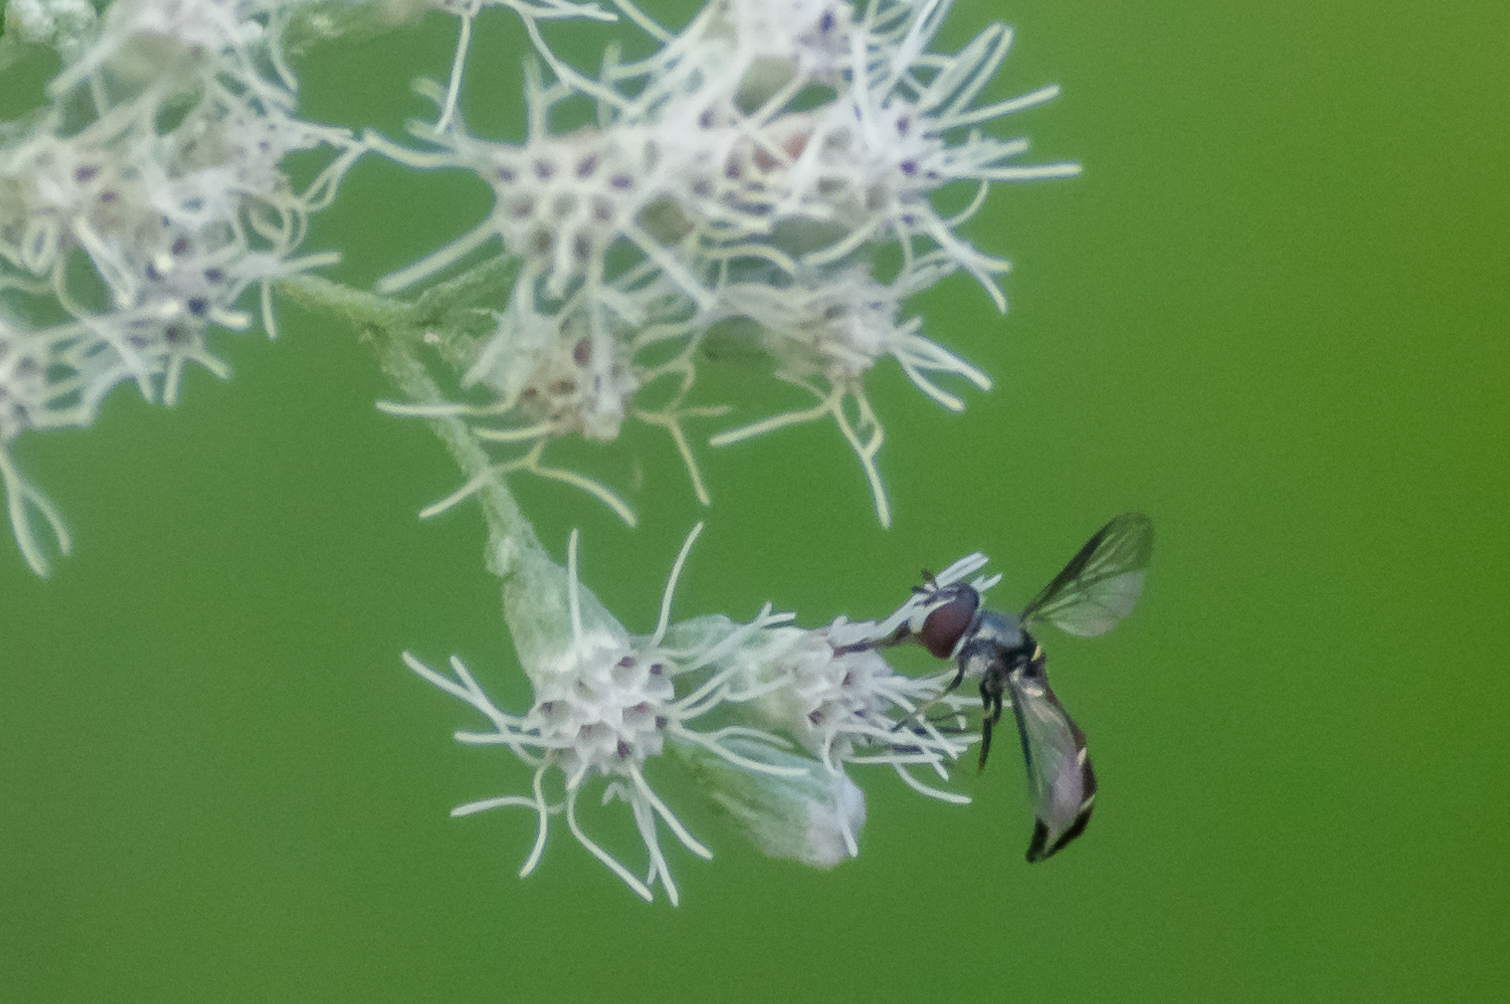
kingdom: Animalia
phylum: Arthropoda
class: Insecta
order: Diptera
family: Syrphidae
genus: Dioprosopa
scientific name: Dioprosopa clavatus
